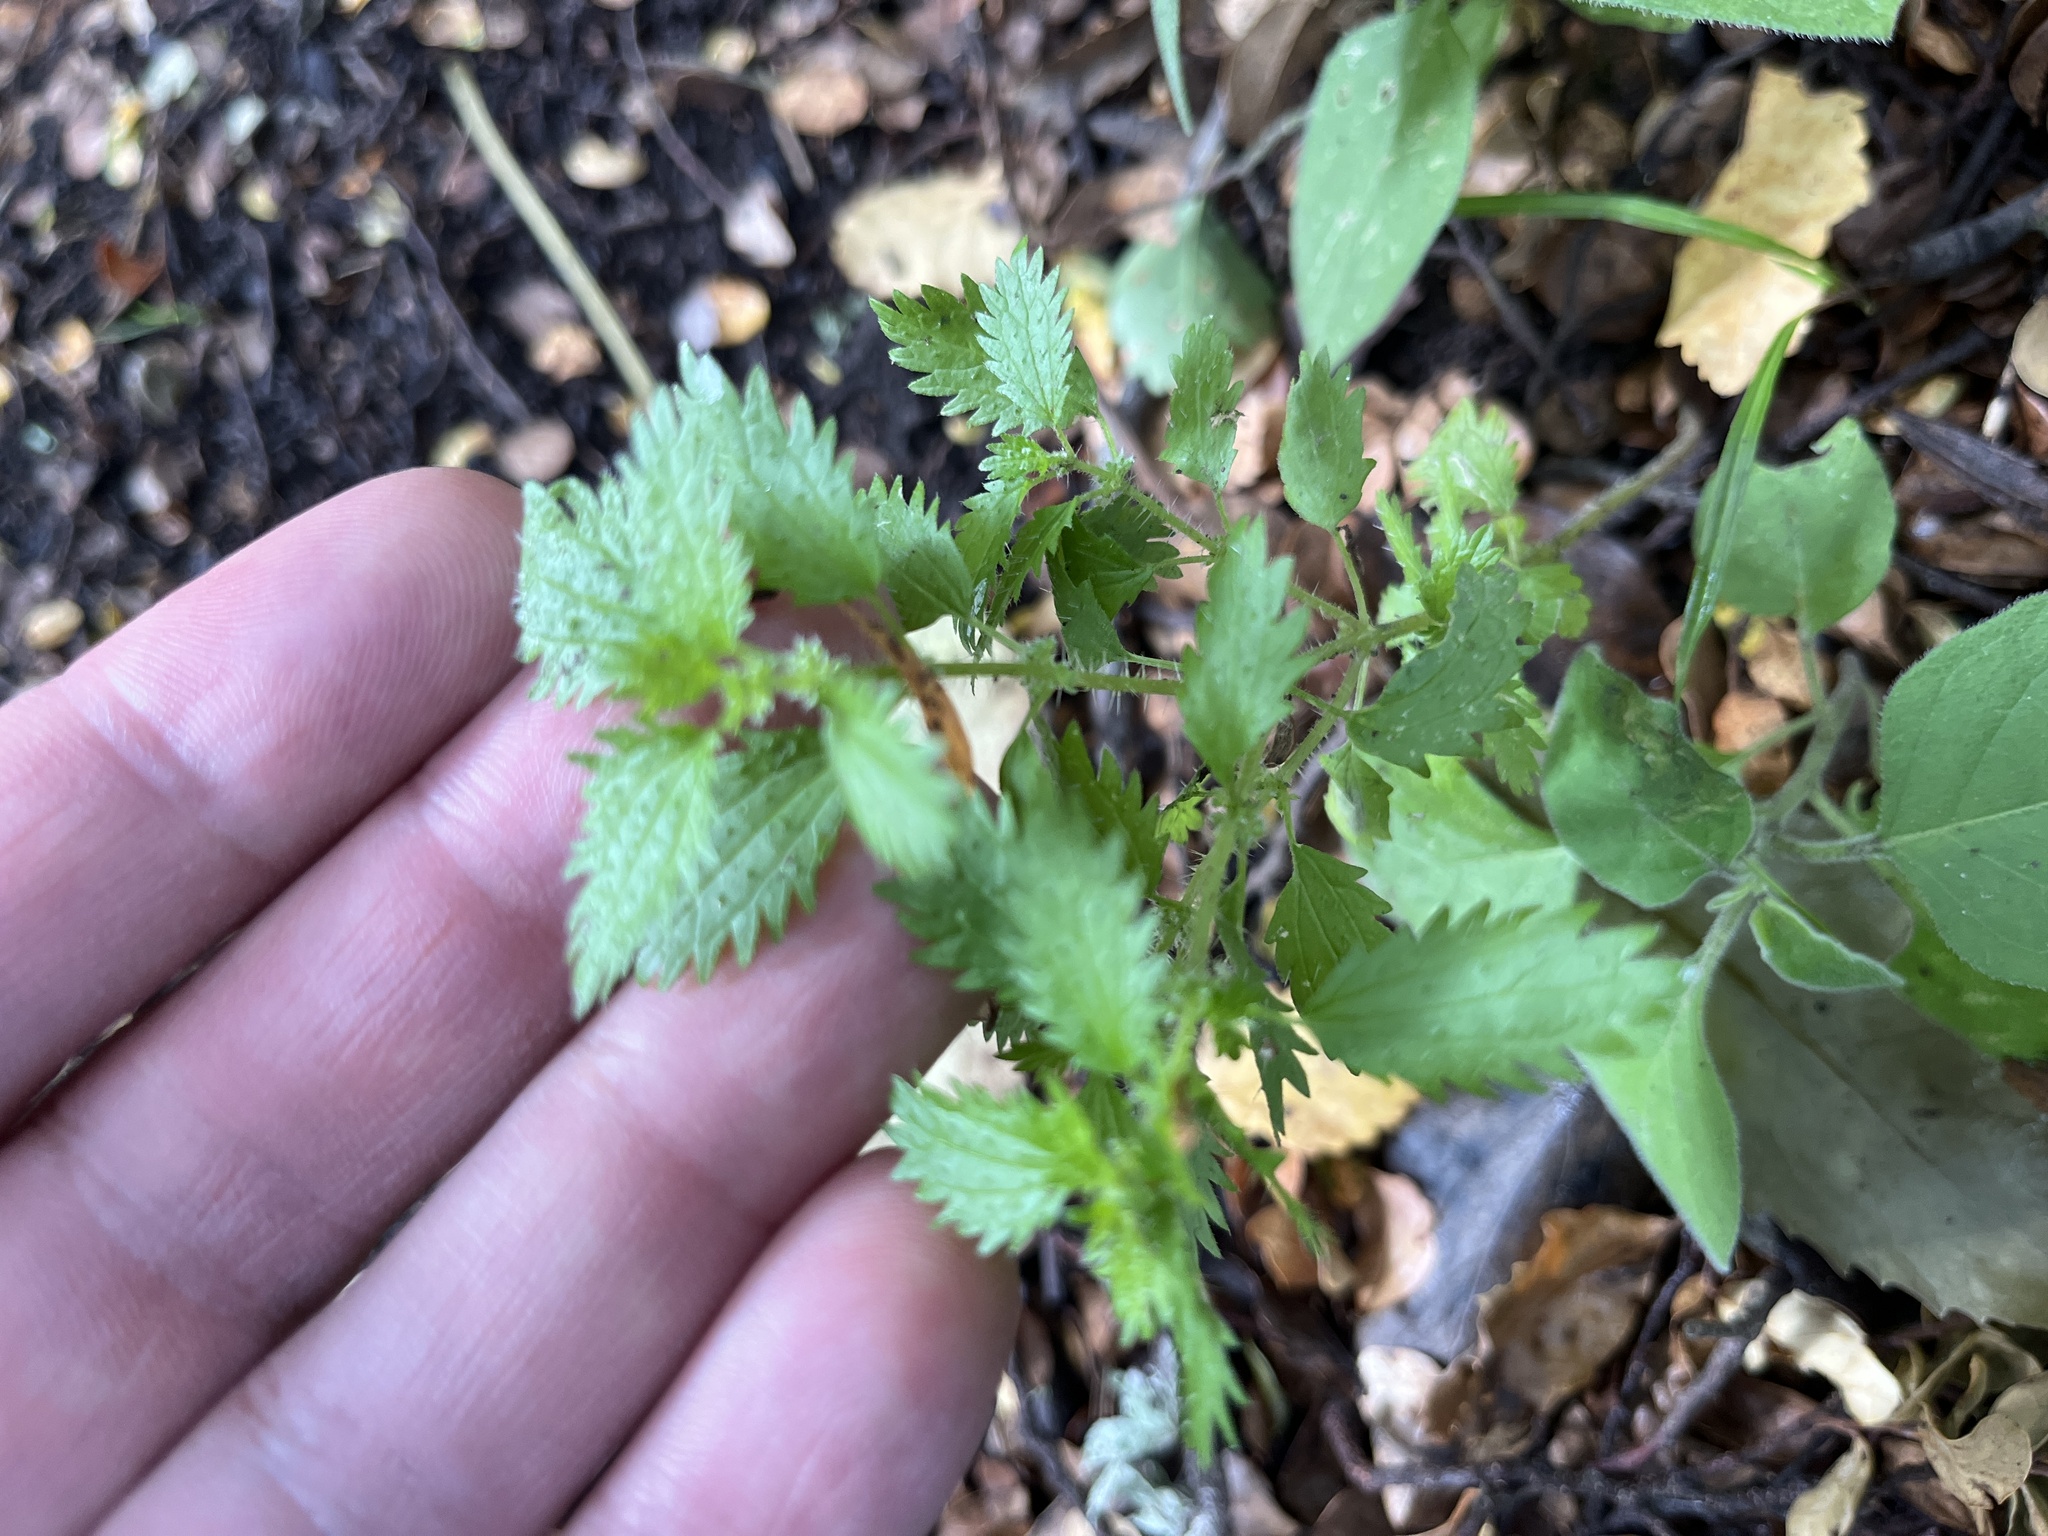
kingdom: Plantae
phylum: Tracheophyta
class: Magnoliopsida
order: Rosales
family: Urticaceae
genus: Urtica
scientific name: Urtica urens
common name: Dwarf nettle
